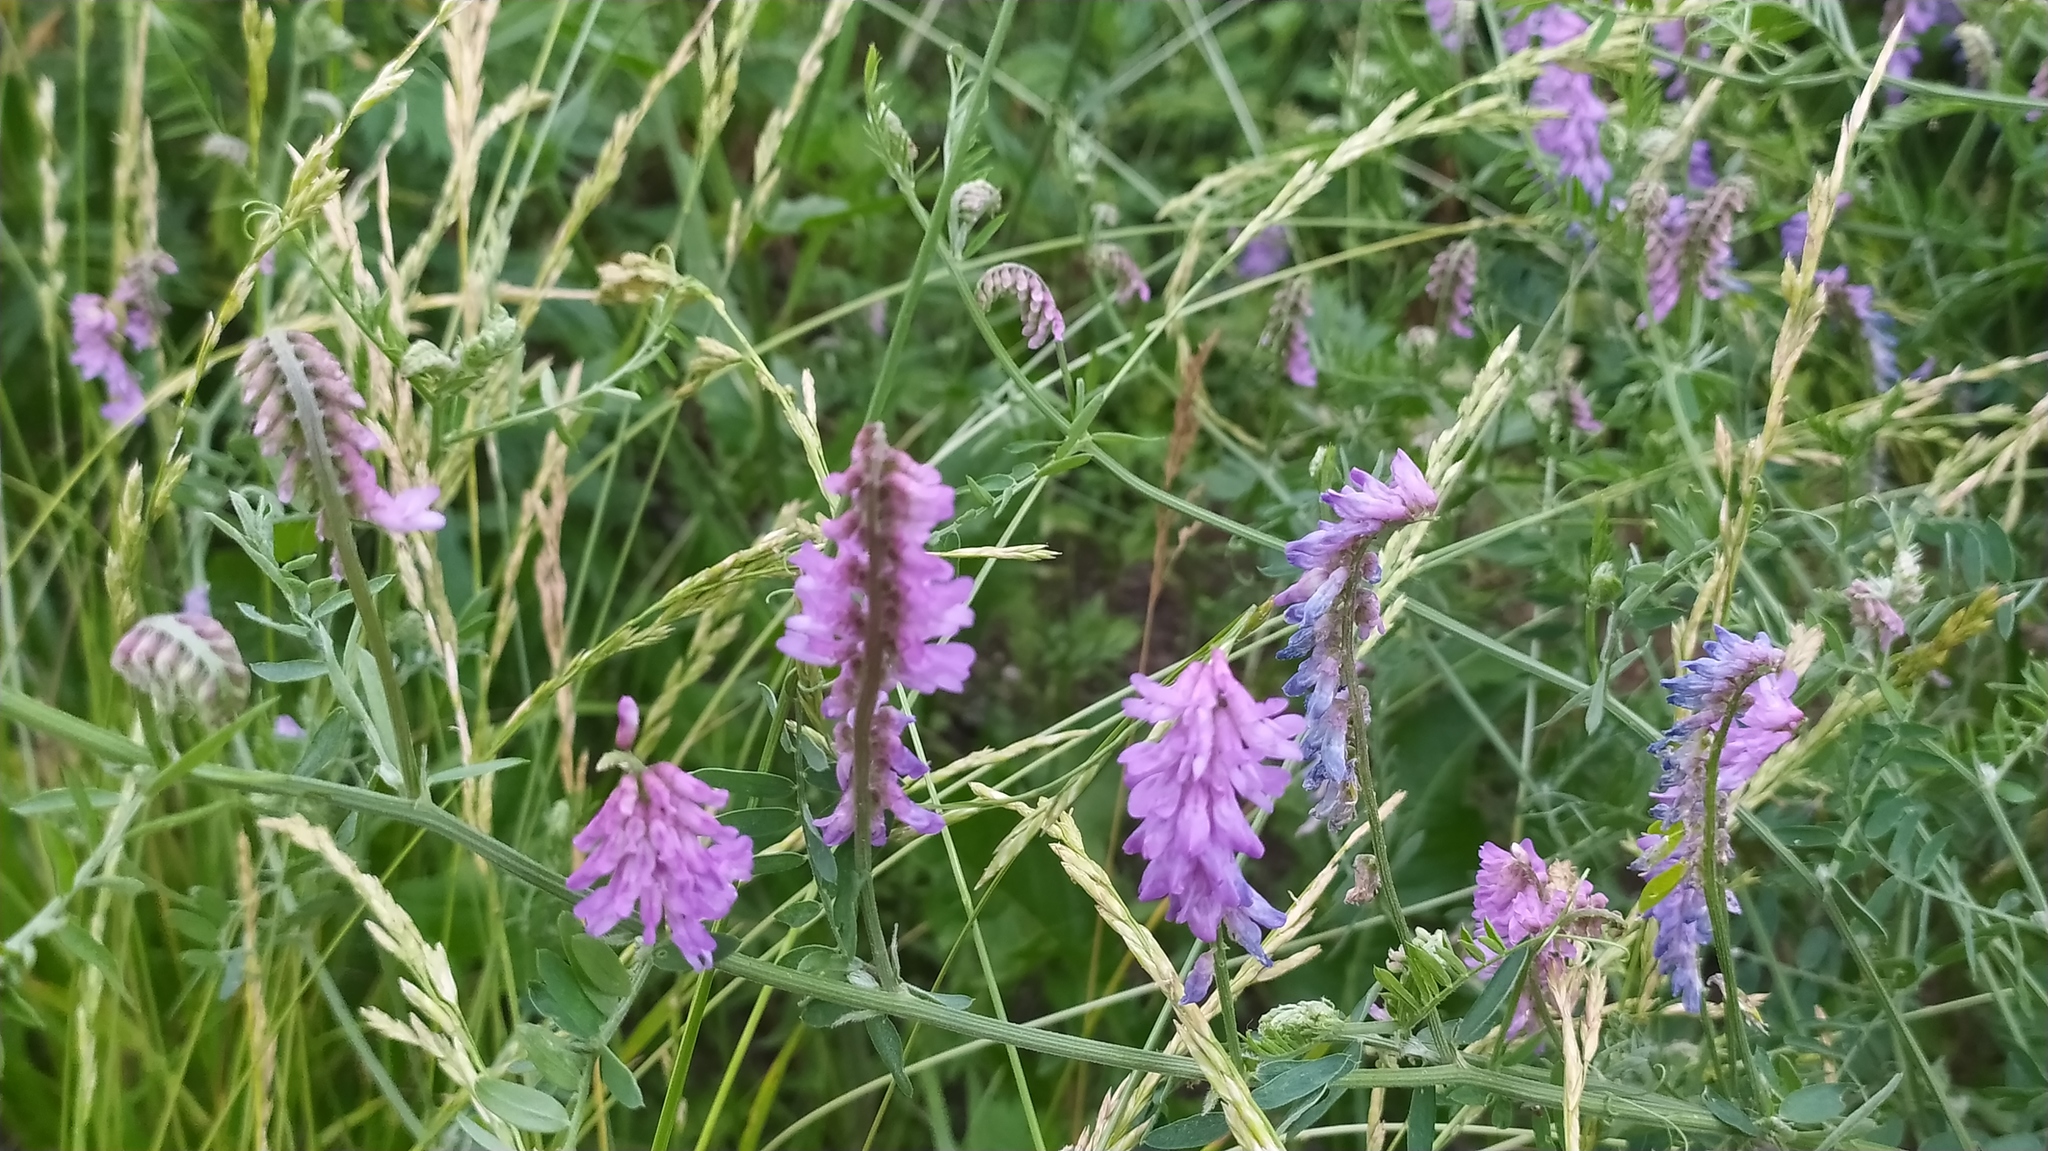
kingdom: Plantae
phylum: Tracheophyta
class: Magnoliopsida
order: Fabales
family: Fabaceae
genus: Vicia
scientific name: Vicia cracca
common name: Bird vetch
